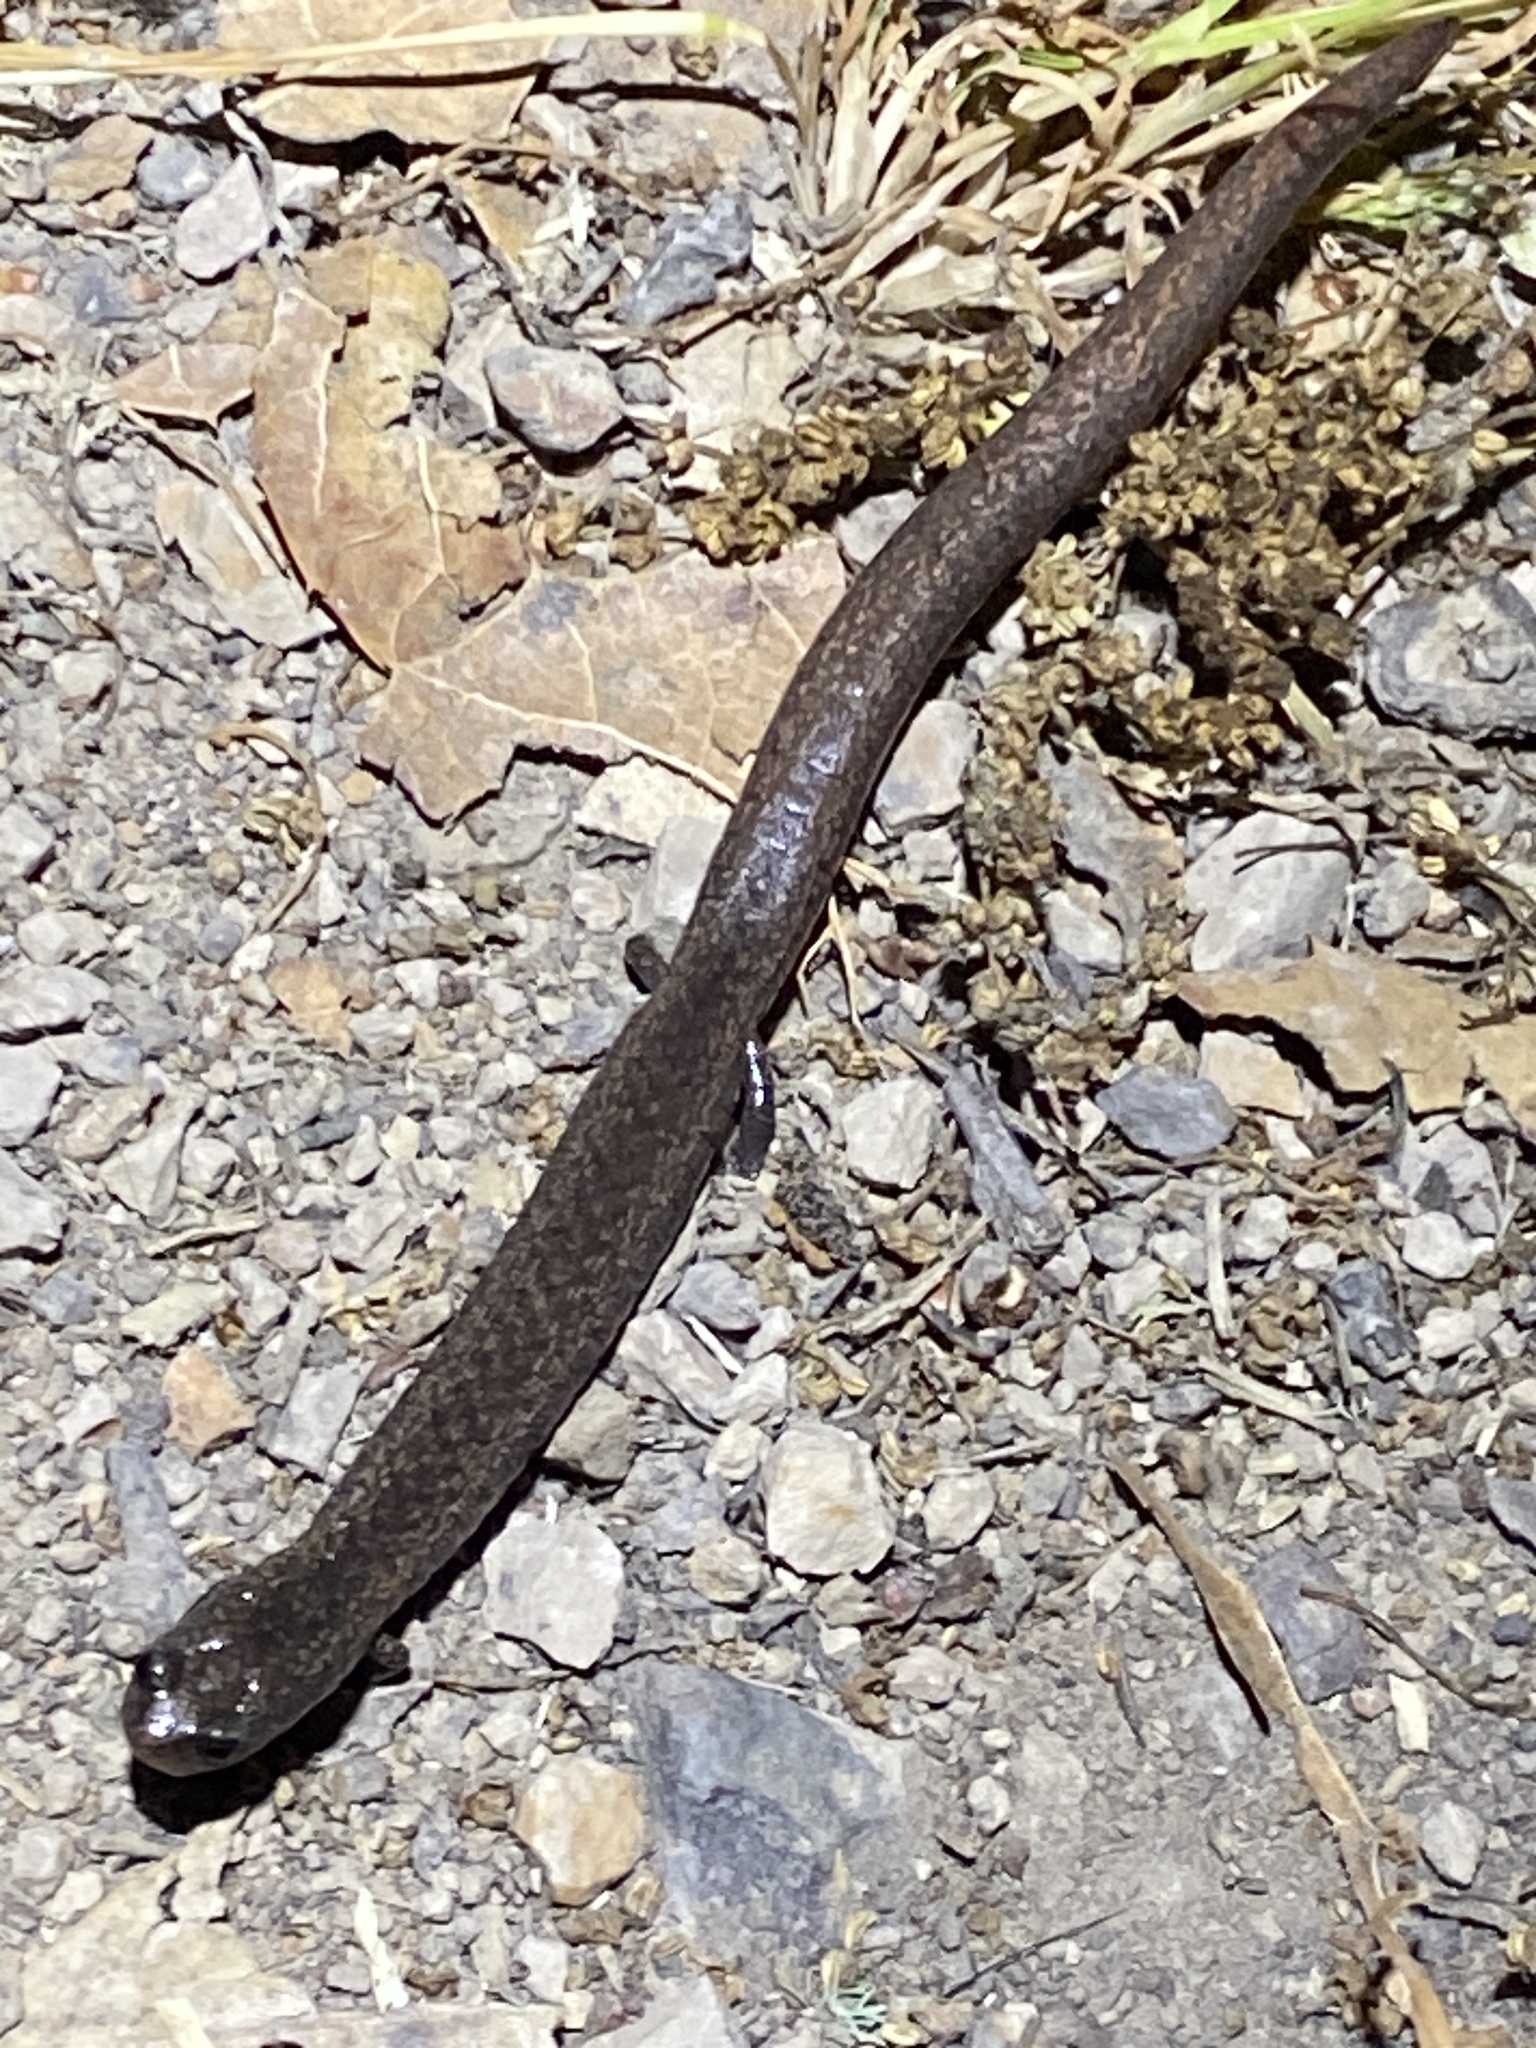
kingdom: Animalia
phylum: Chordata
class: Amphibia
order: Caudata
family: Plethodontidae
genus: Batrachoseps
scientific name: Batrachoseps attenuatus
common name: California slender salamander
